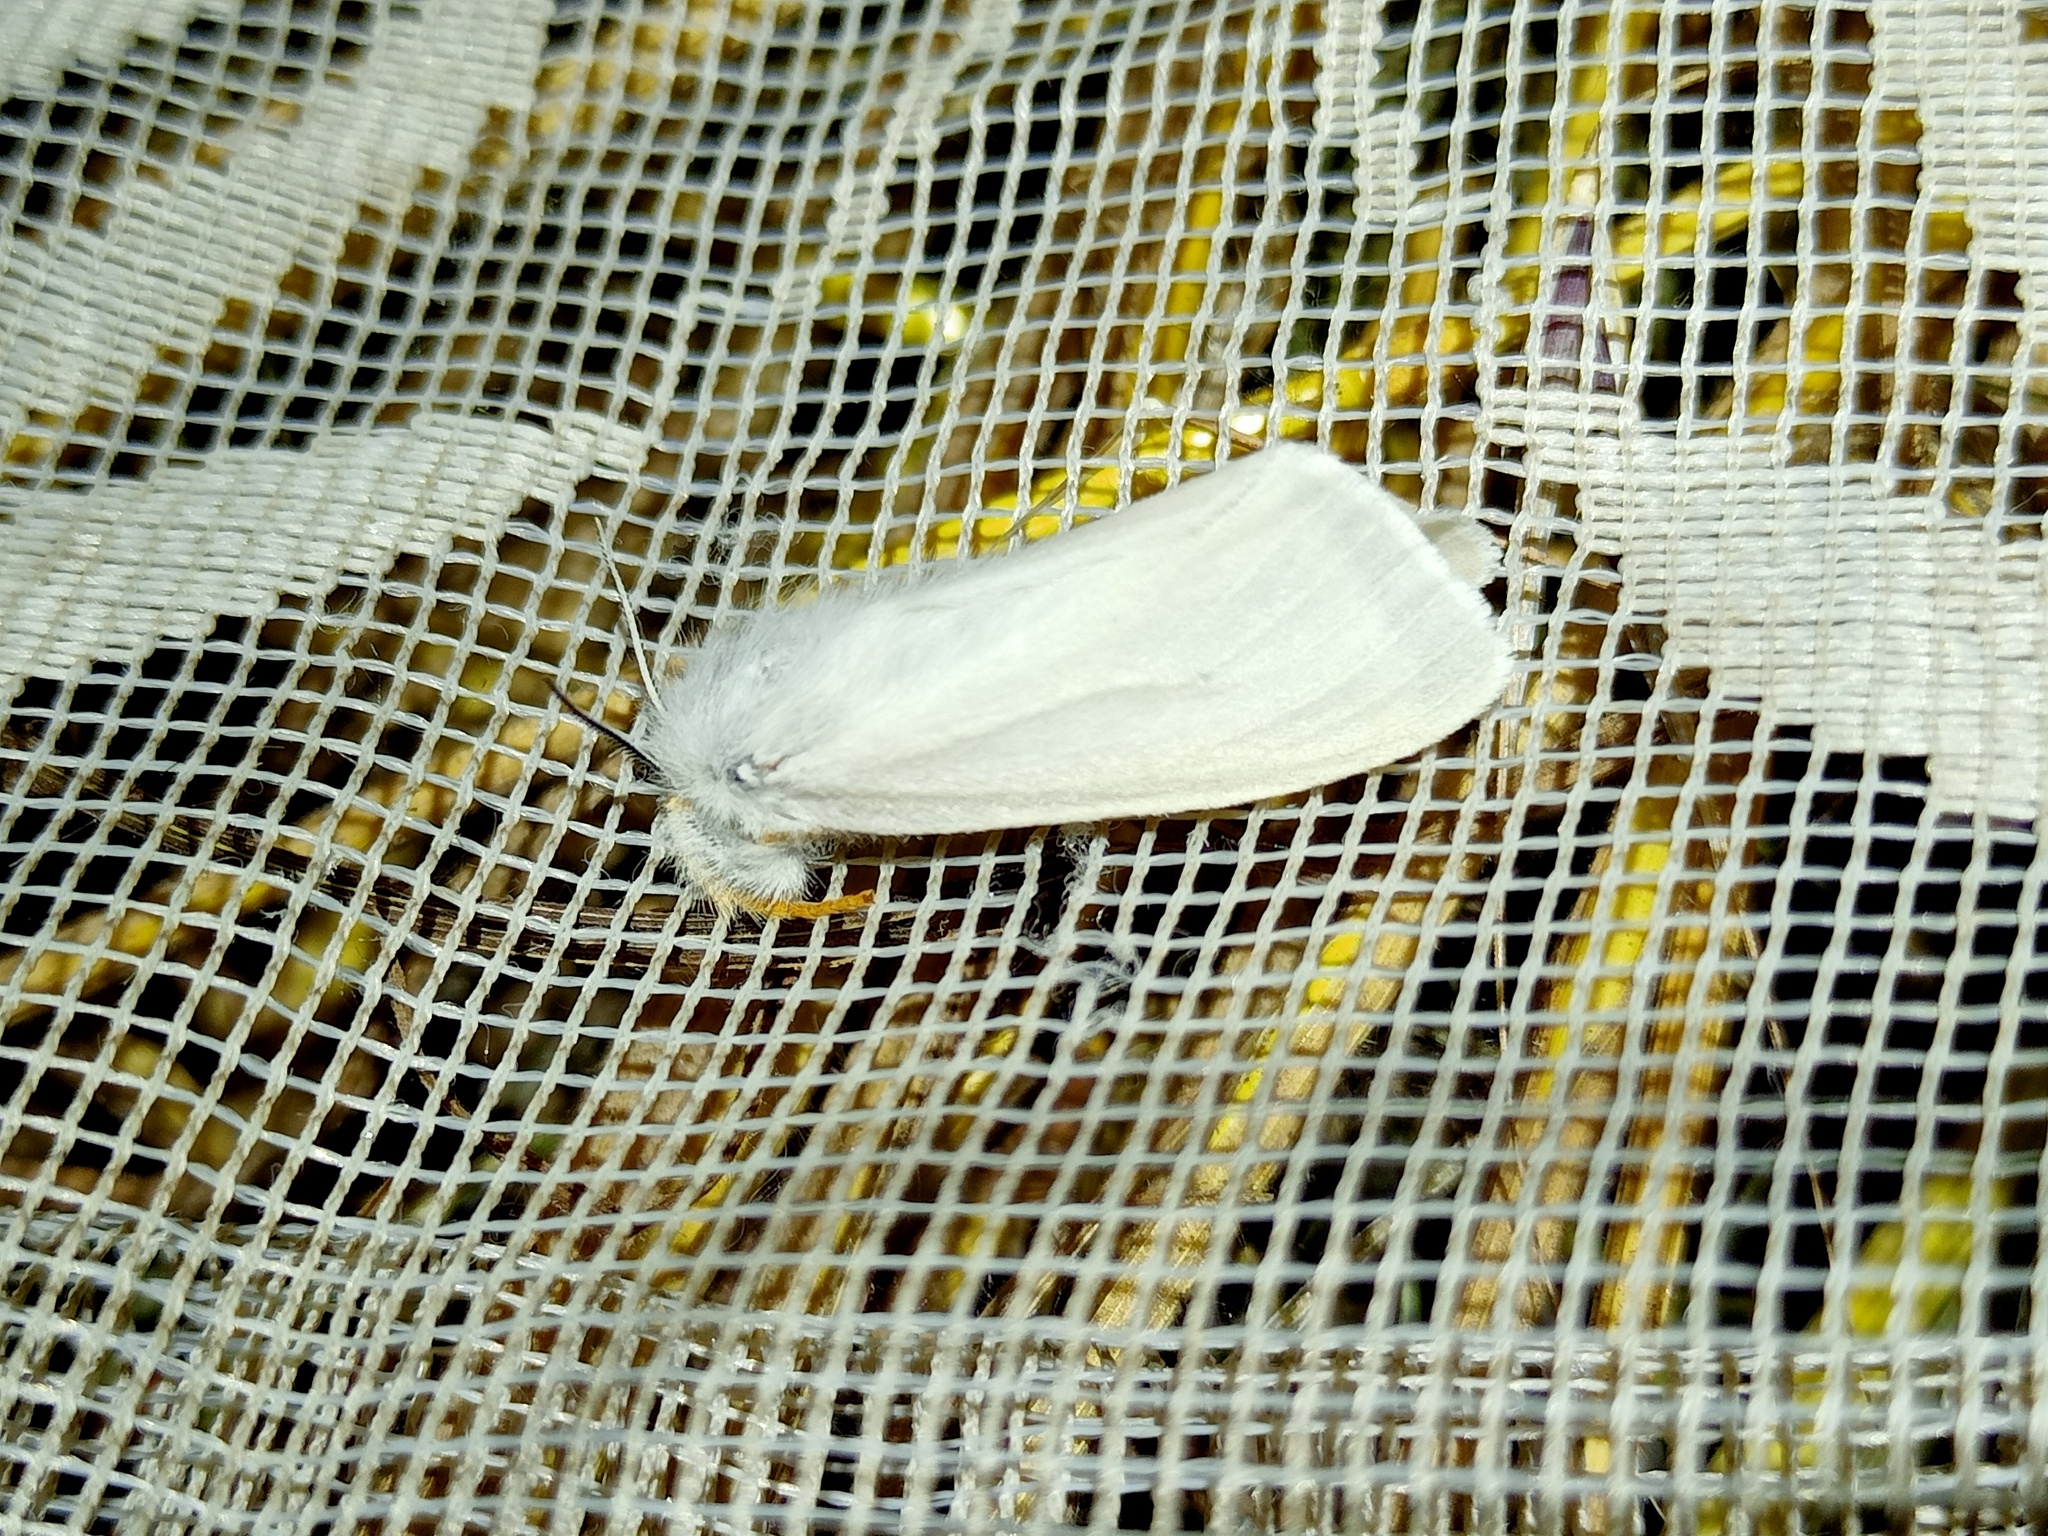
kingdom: Animalia
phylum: Arthropoda
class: Insecta
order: Lepidoptera
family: Erebidae
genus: Laelia
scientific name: Laelia coenosa
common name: Reed tussock
